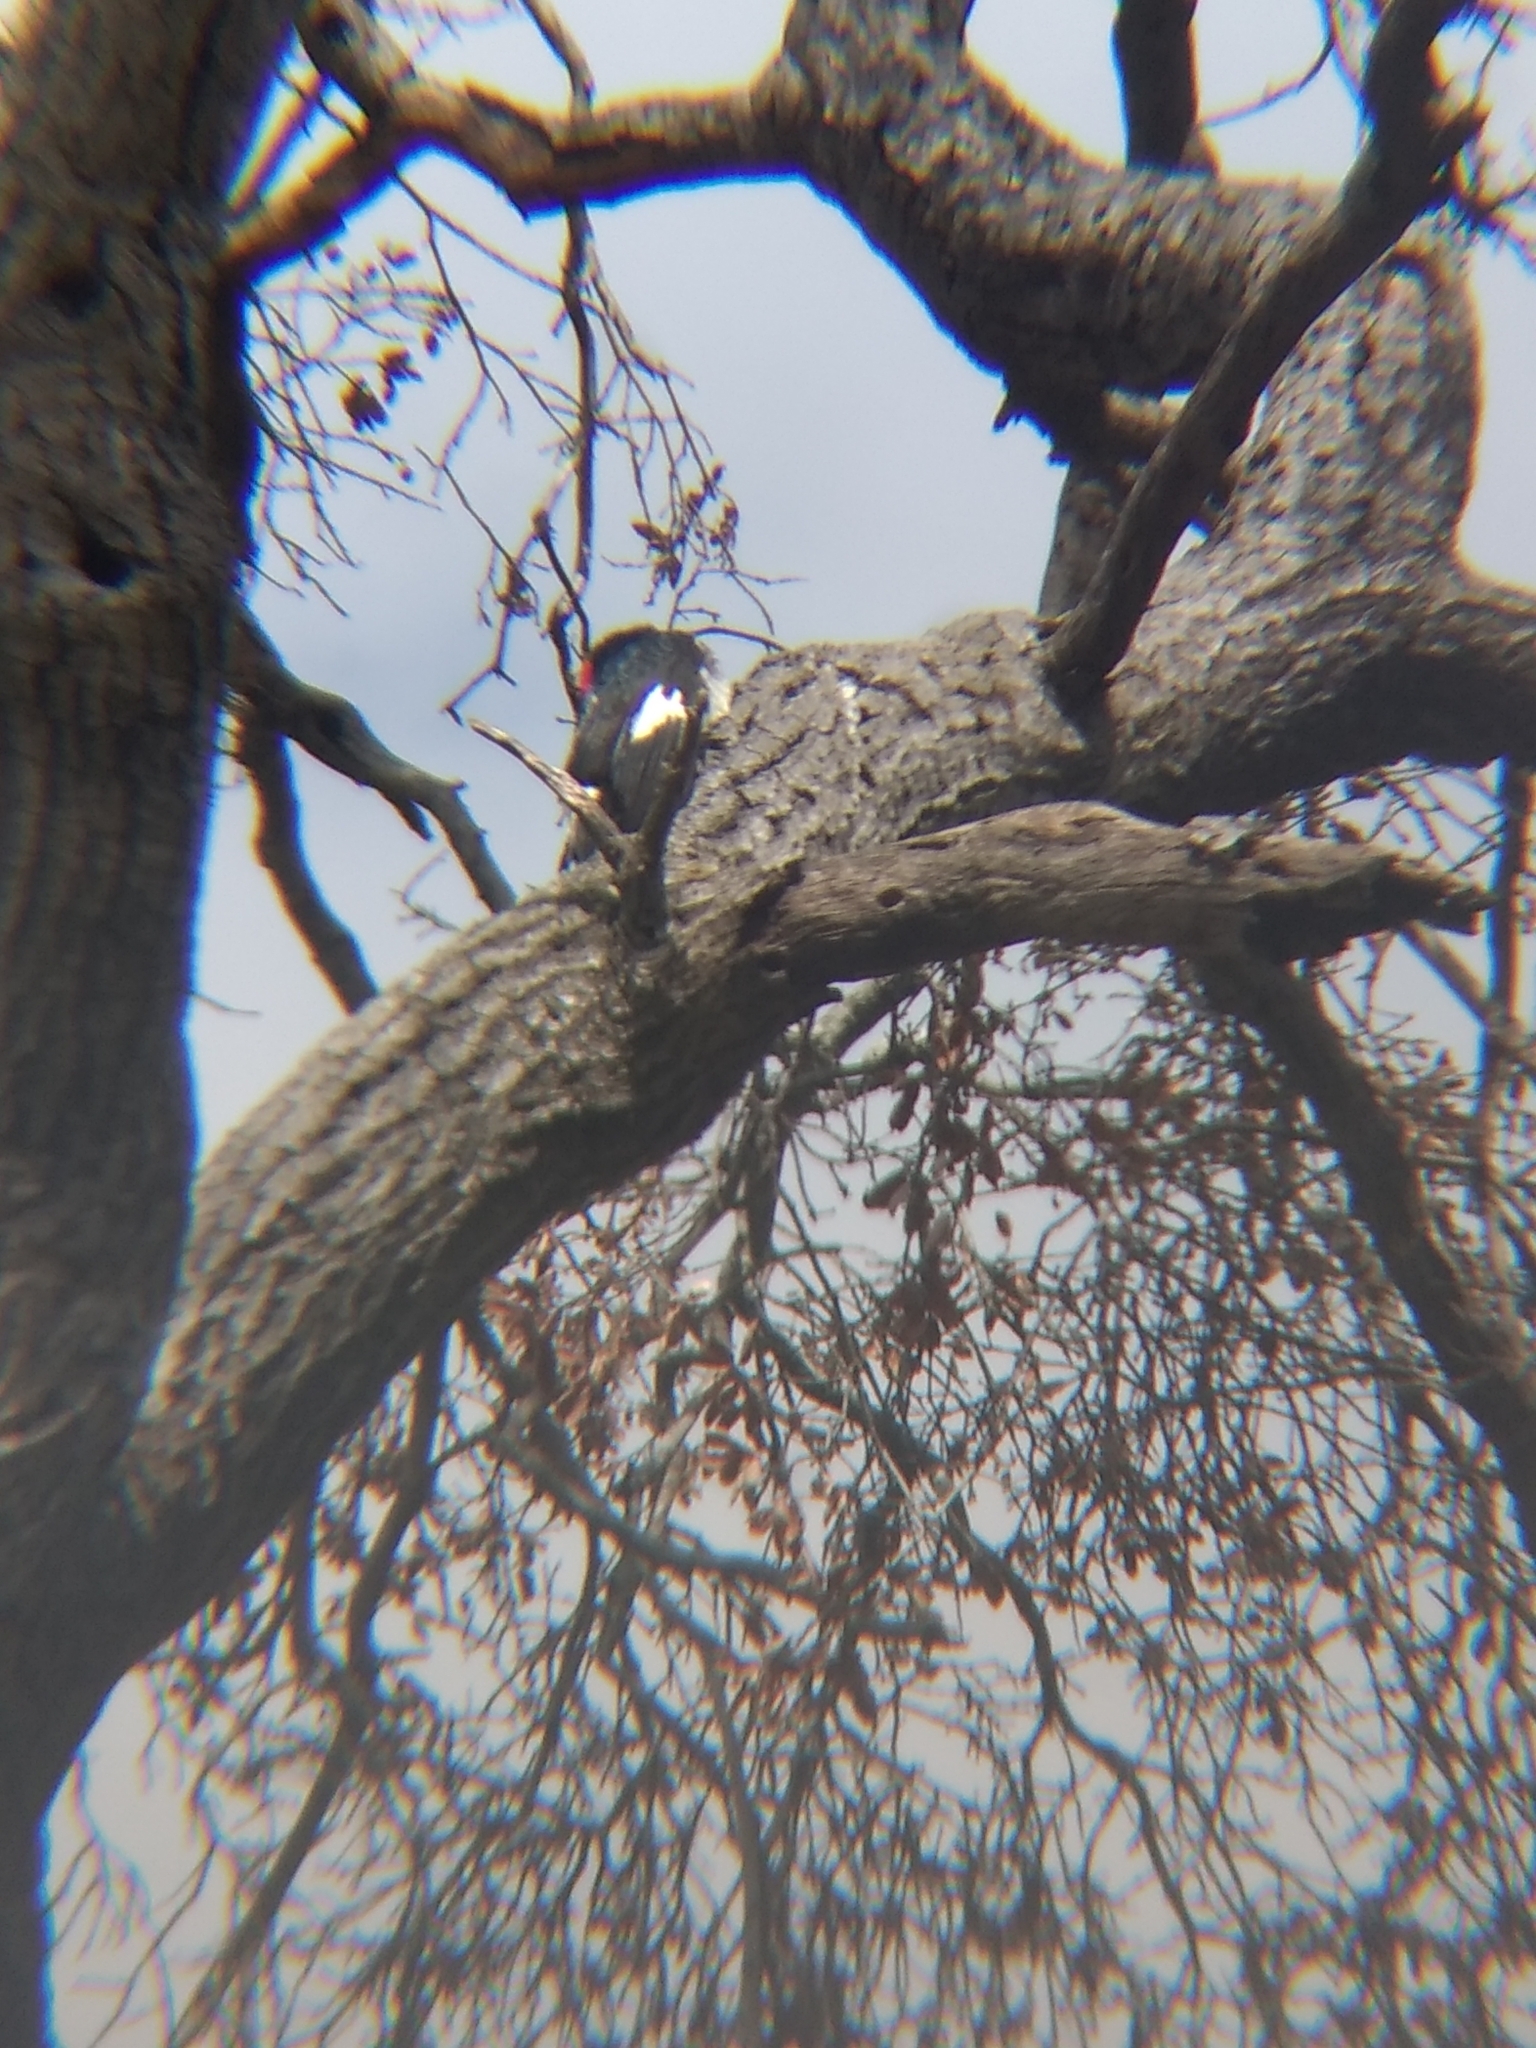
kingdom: Animalia
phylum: Chordata
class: Aves
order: Piciformes
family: Picidae
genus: Melanerpes
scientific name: Melanerpes formicivorus
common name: Acorn woodpecker
